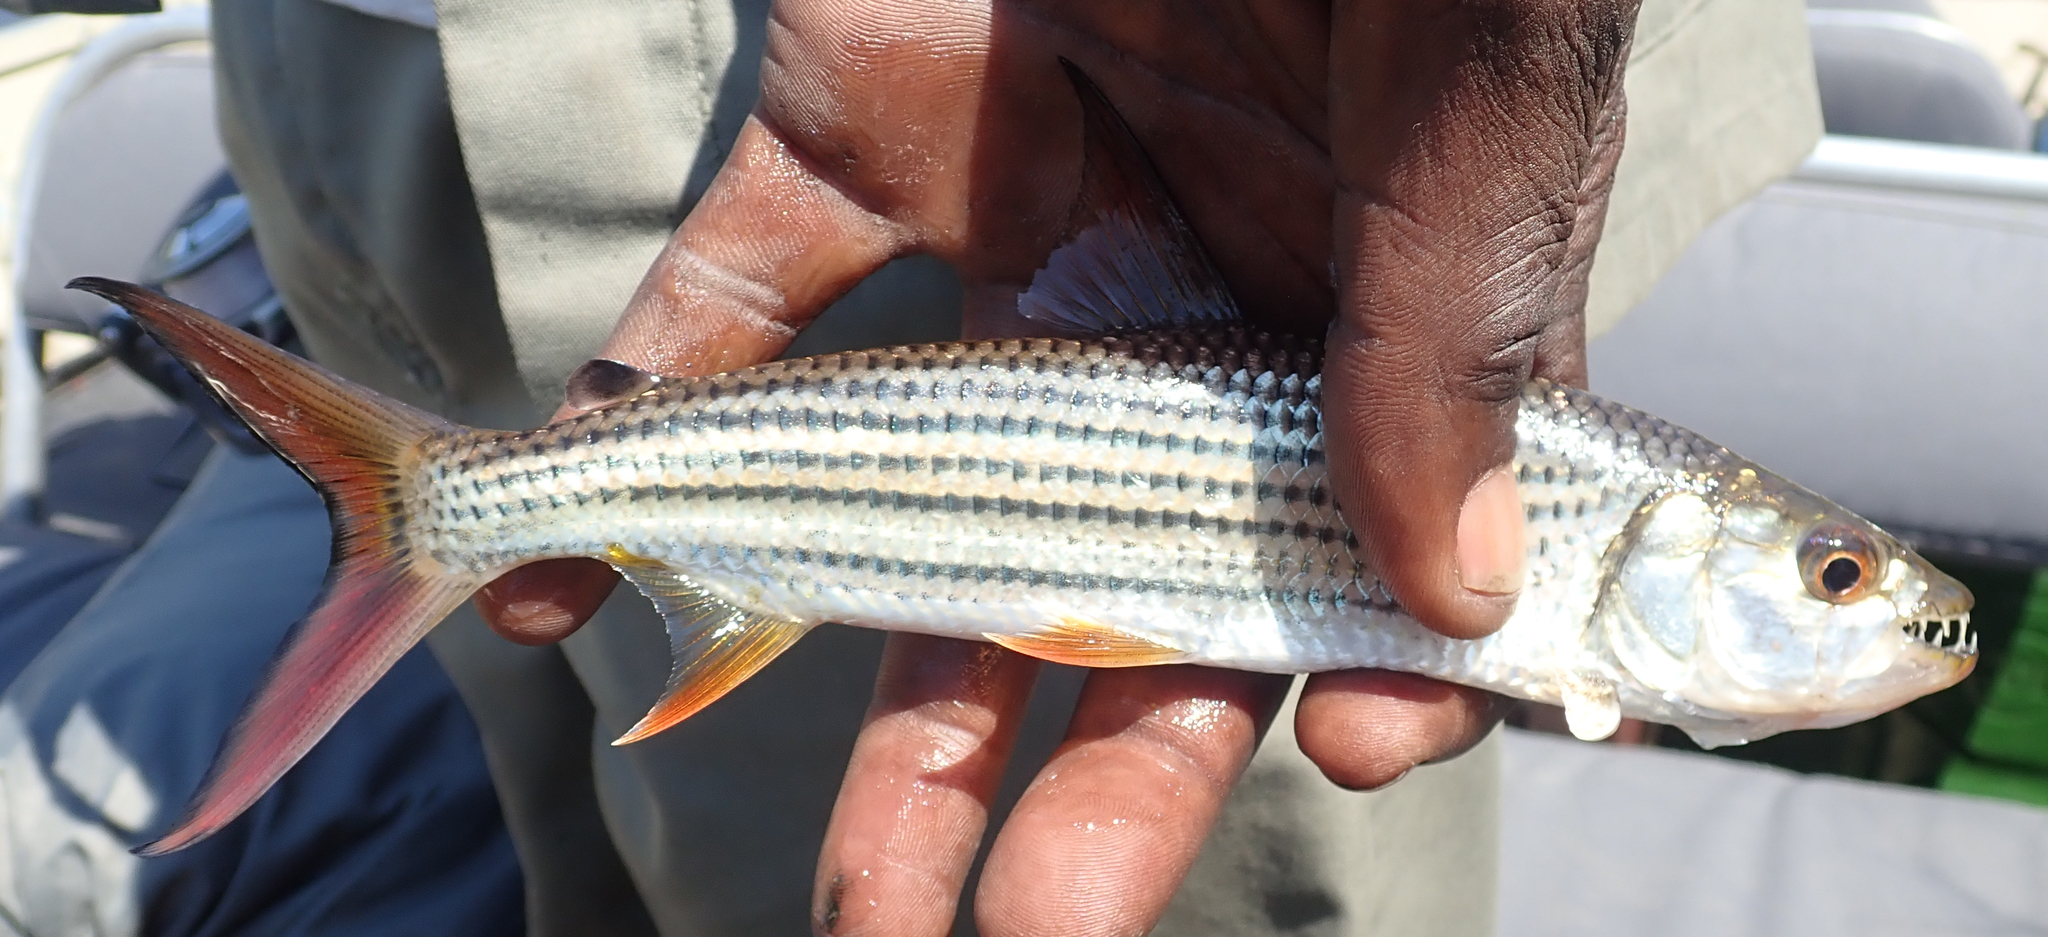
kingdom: Animalia
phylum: Chordata
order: Characiformes
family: Alestidae
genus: Hydrocynus
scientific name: Hydrocynus vittatus
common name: Tigerfish
